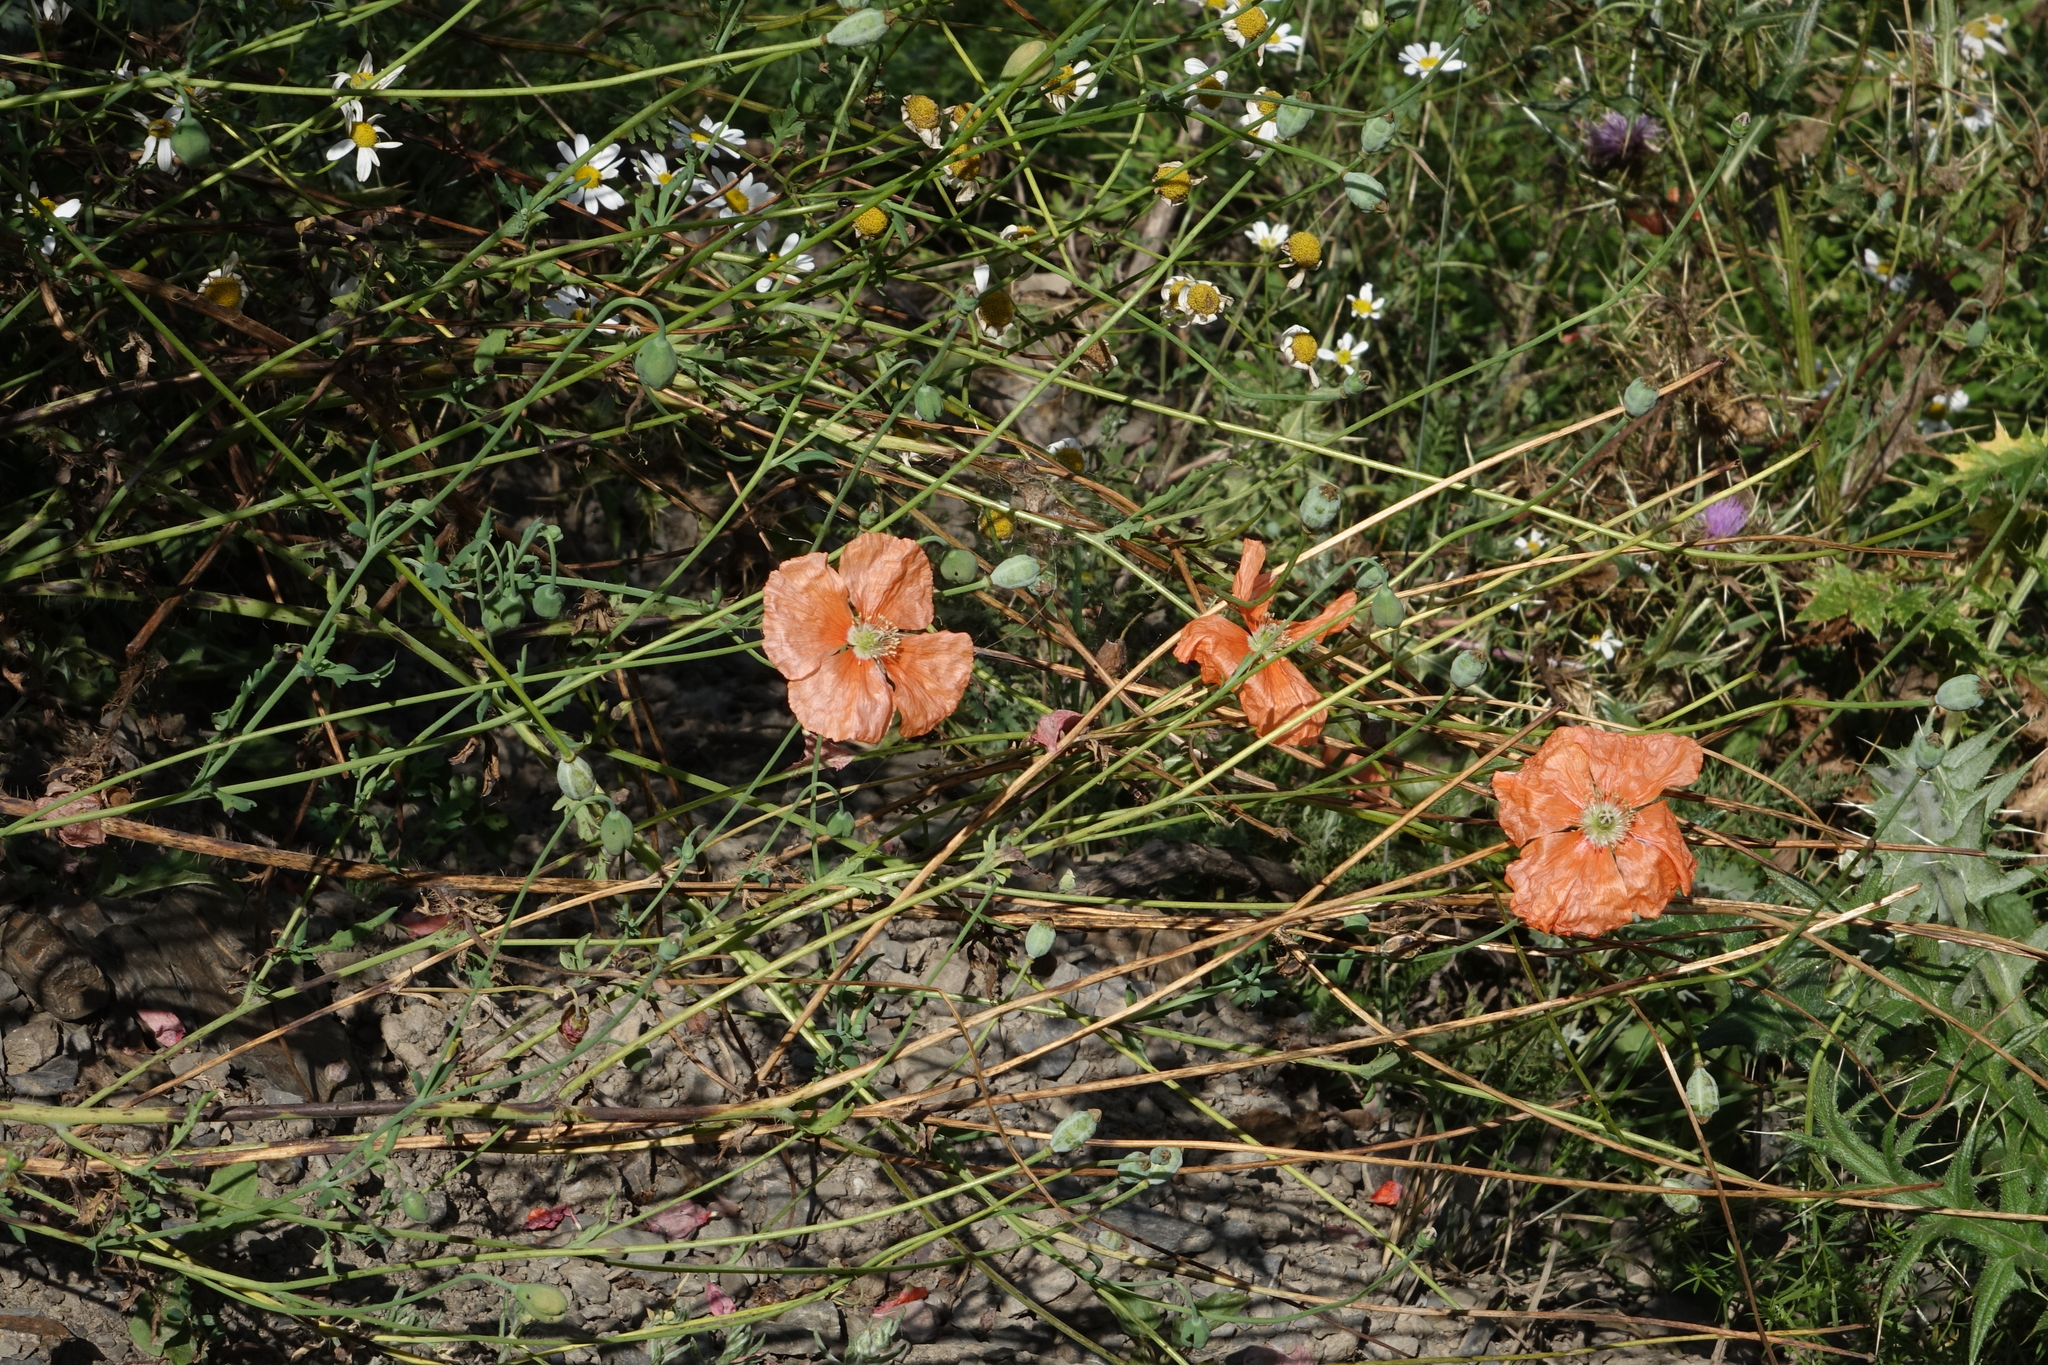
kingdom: Plantae
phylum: Tracheophyta
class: Magnoliopsida
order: Ranunculales
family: Papaveraceae
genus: Papaver
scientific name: Papaver armeniacum
